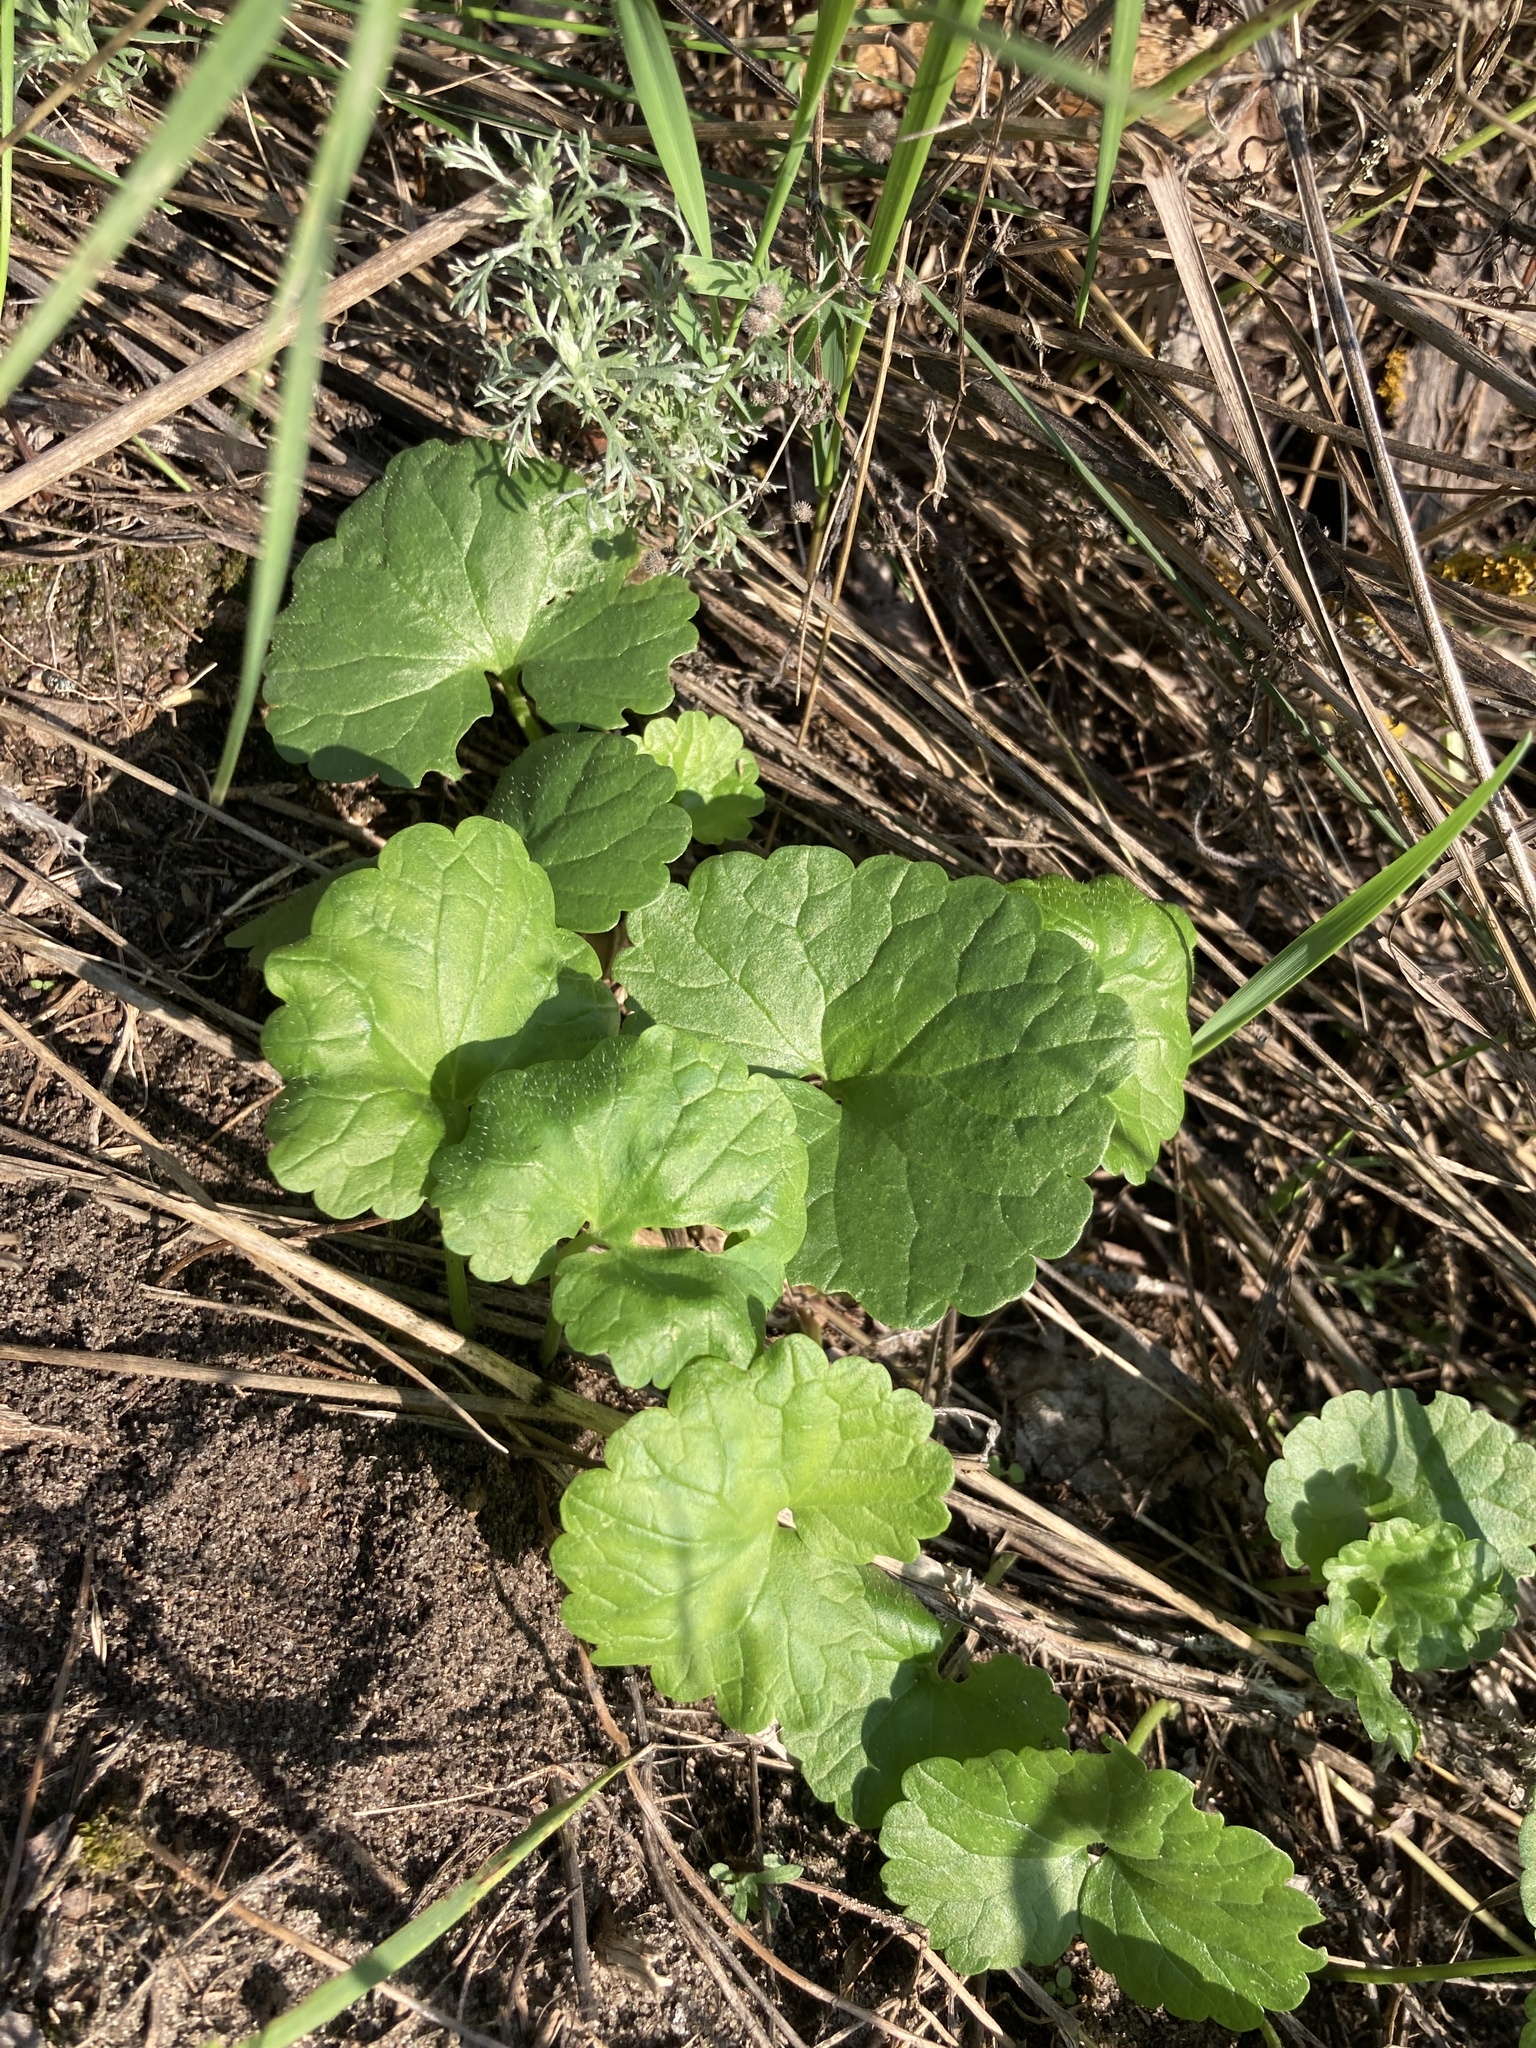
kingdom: Plantae
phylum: Tracheophyta
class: Magnoliopsida
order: Lamiales
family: Lamiaceae
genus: Glechoma
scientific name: Glechoma hederacea
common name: Ground ivy
